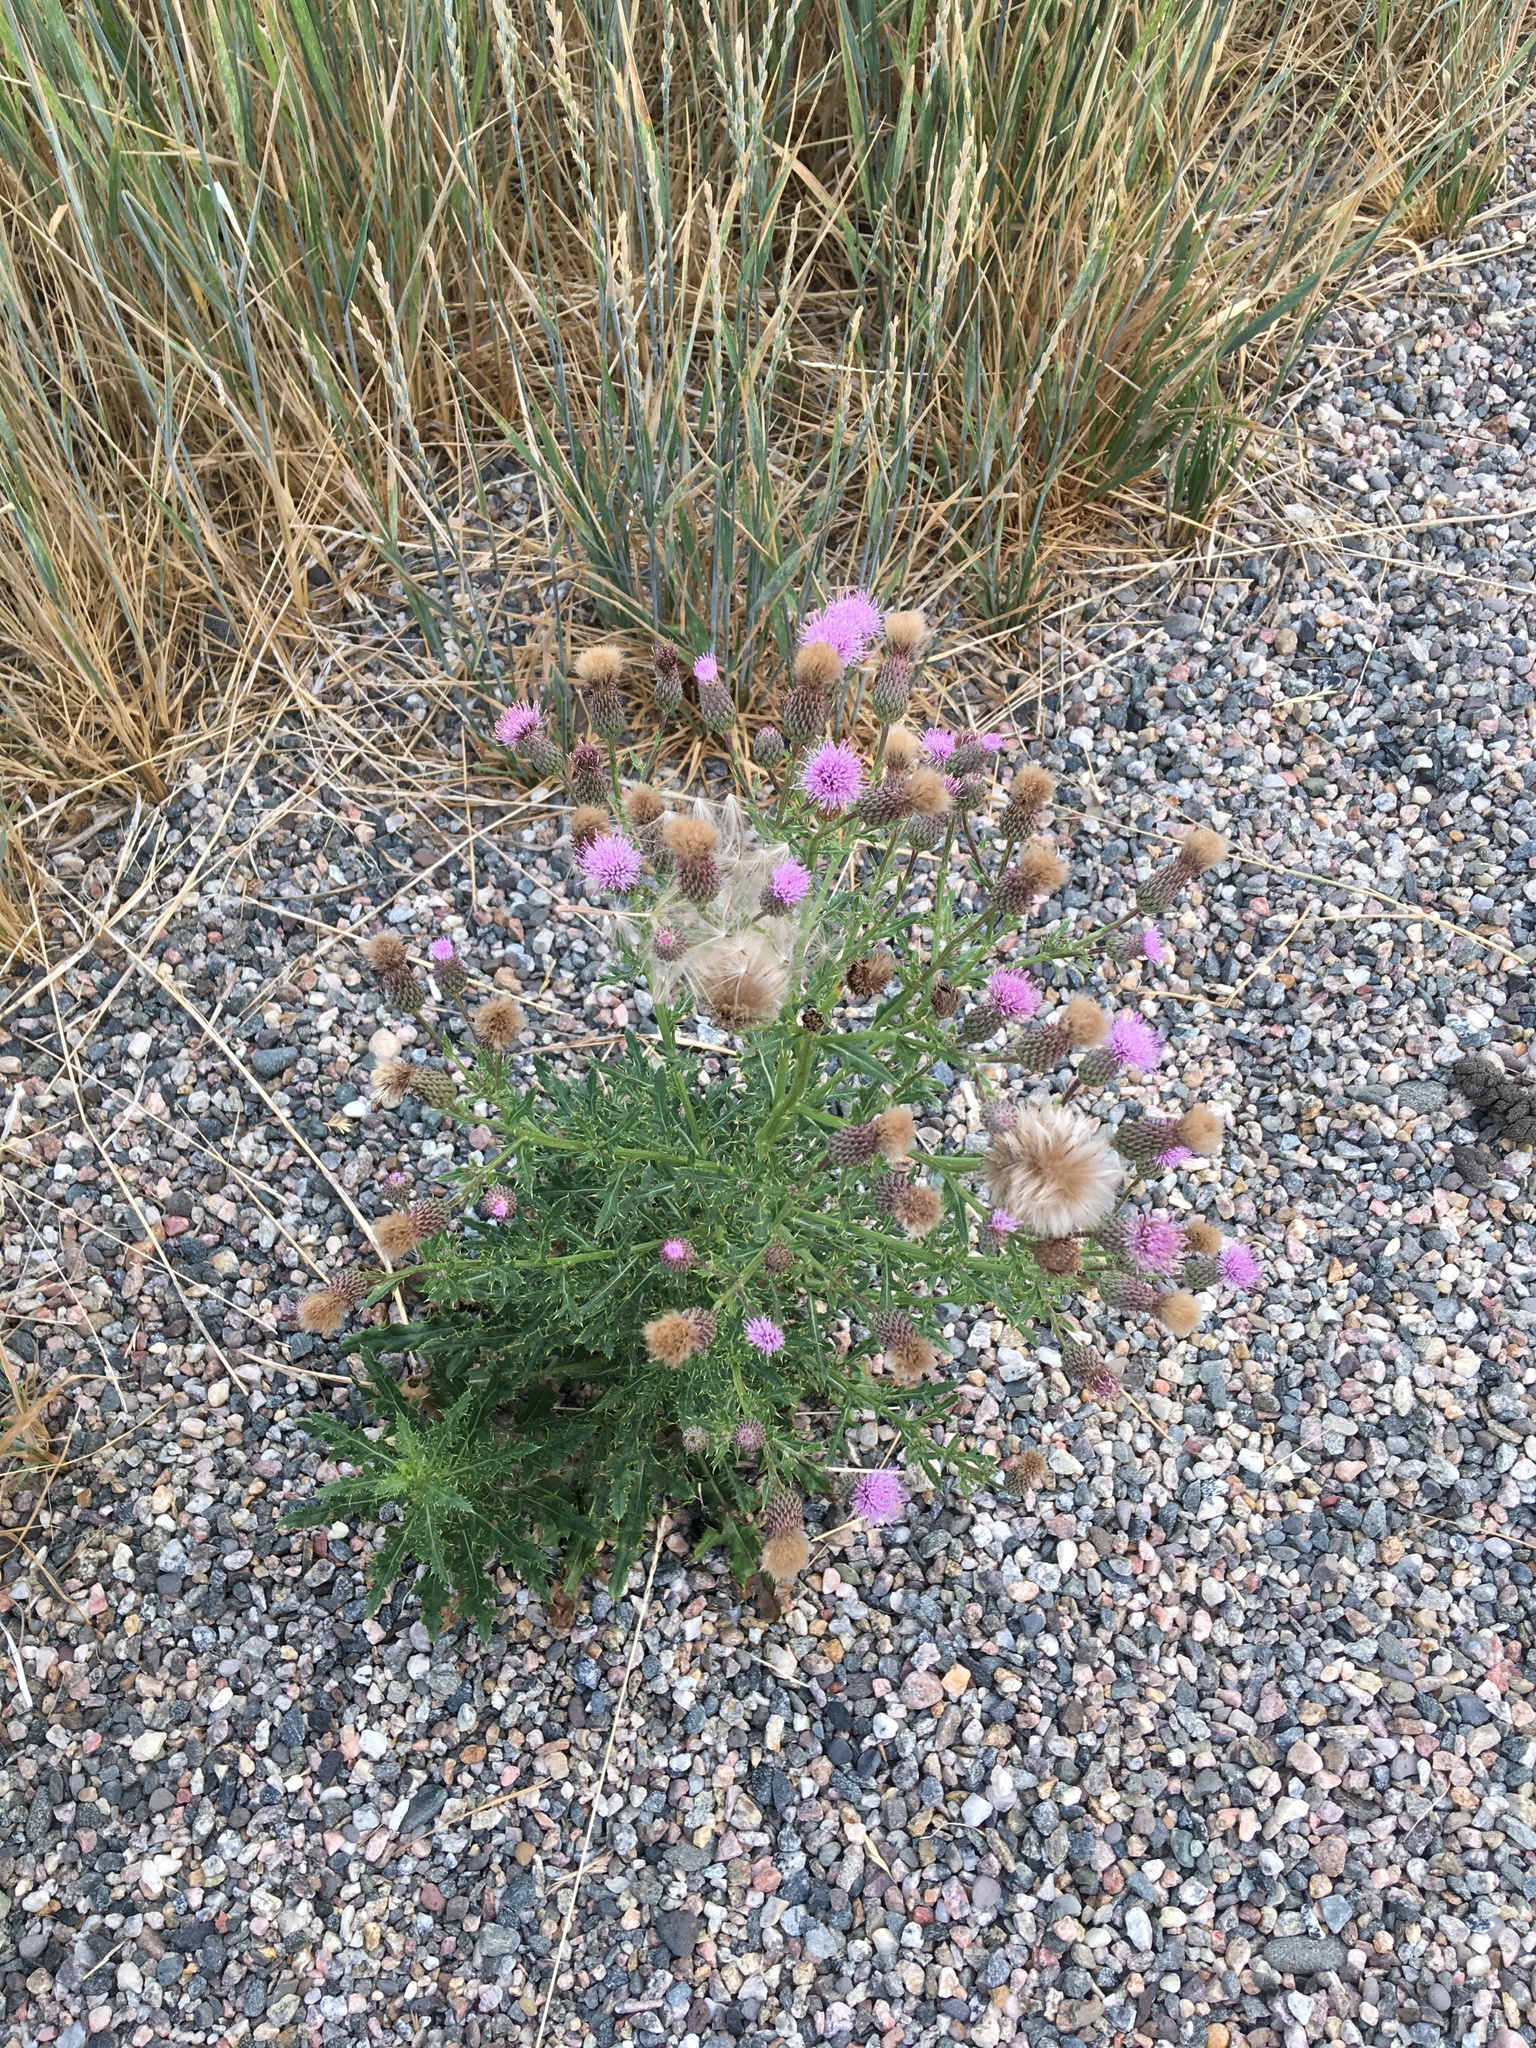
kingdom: Plantae
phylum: Tracheophyta
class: Magnoliopsida
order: Asterales
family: Asteraceae
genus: Cirsium
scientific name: Cirsium arvense
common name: Creeping thistle
